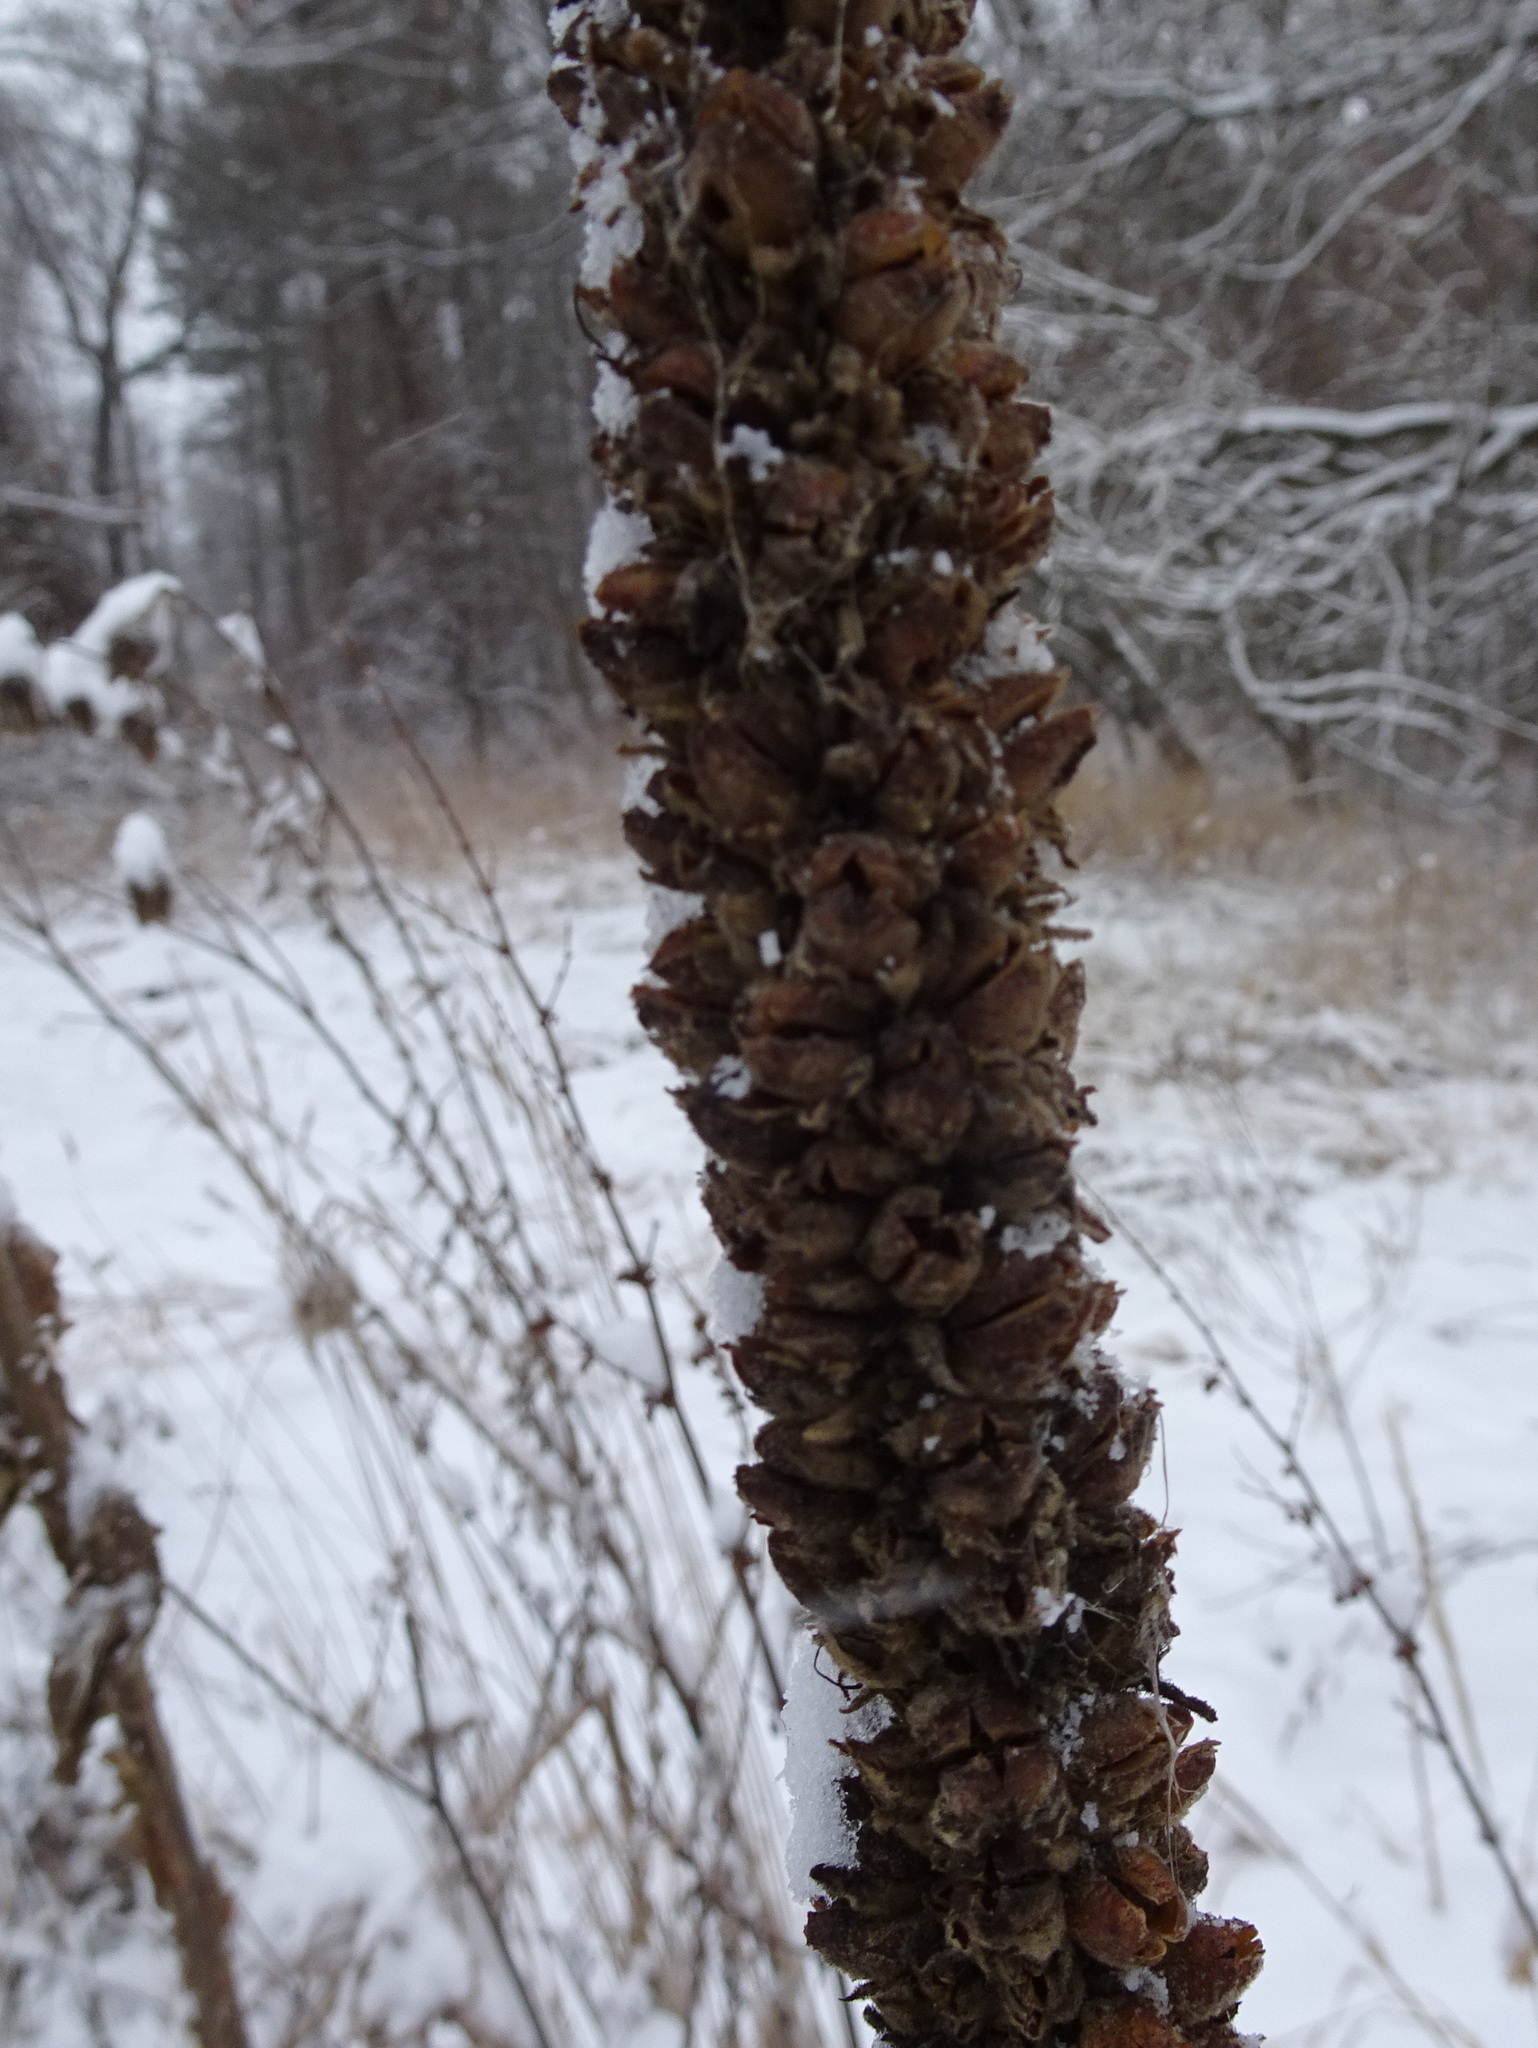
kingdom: Plantae
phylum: Tracheophyta
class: Magnoliopsida
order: Lamiales
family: Scrophulariaceae
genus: Verbascum
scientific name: Verbascum thapsus
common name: Common mullein
